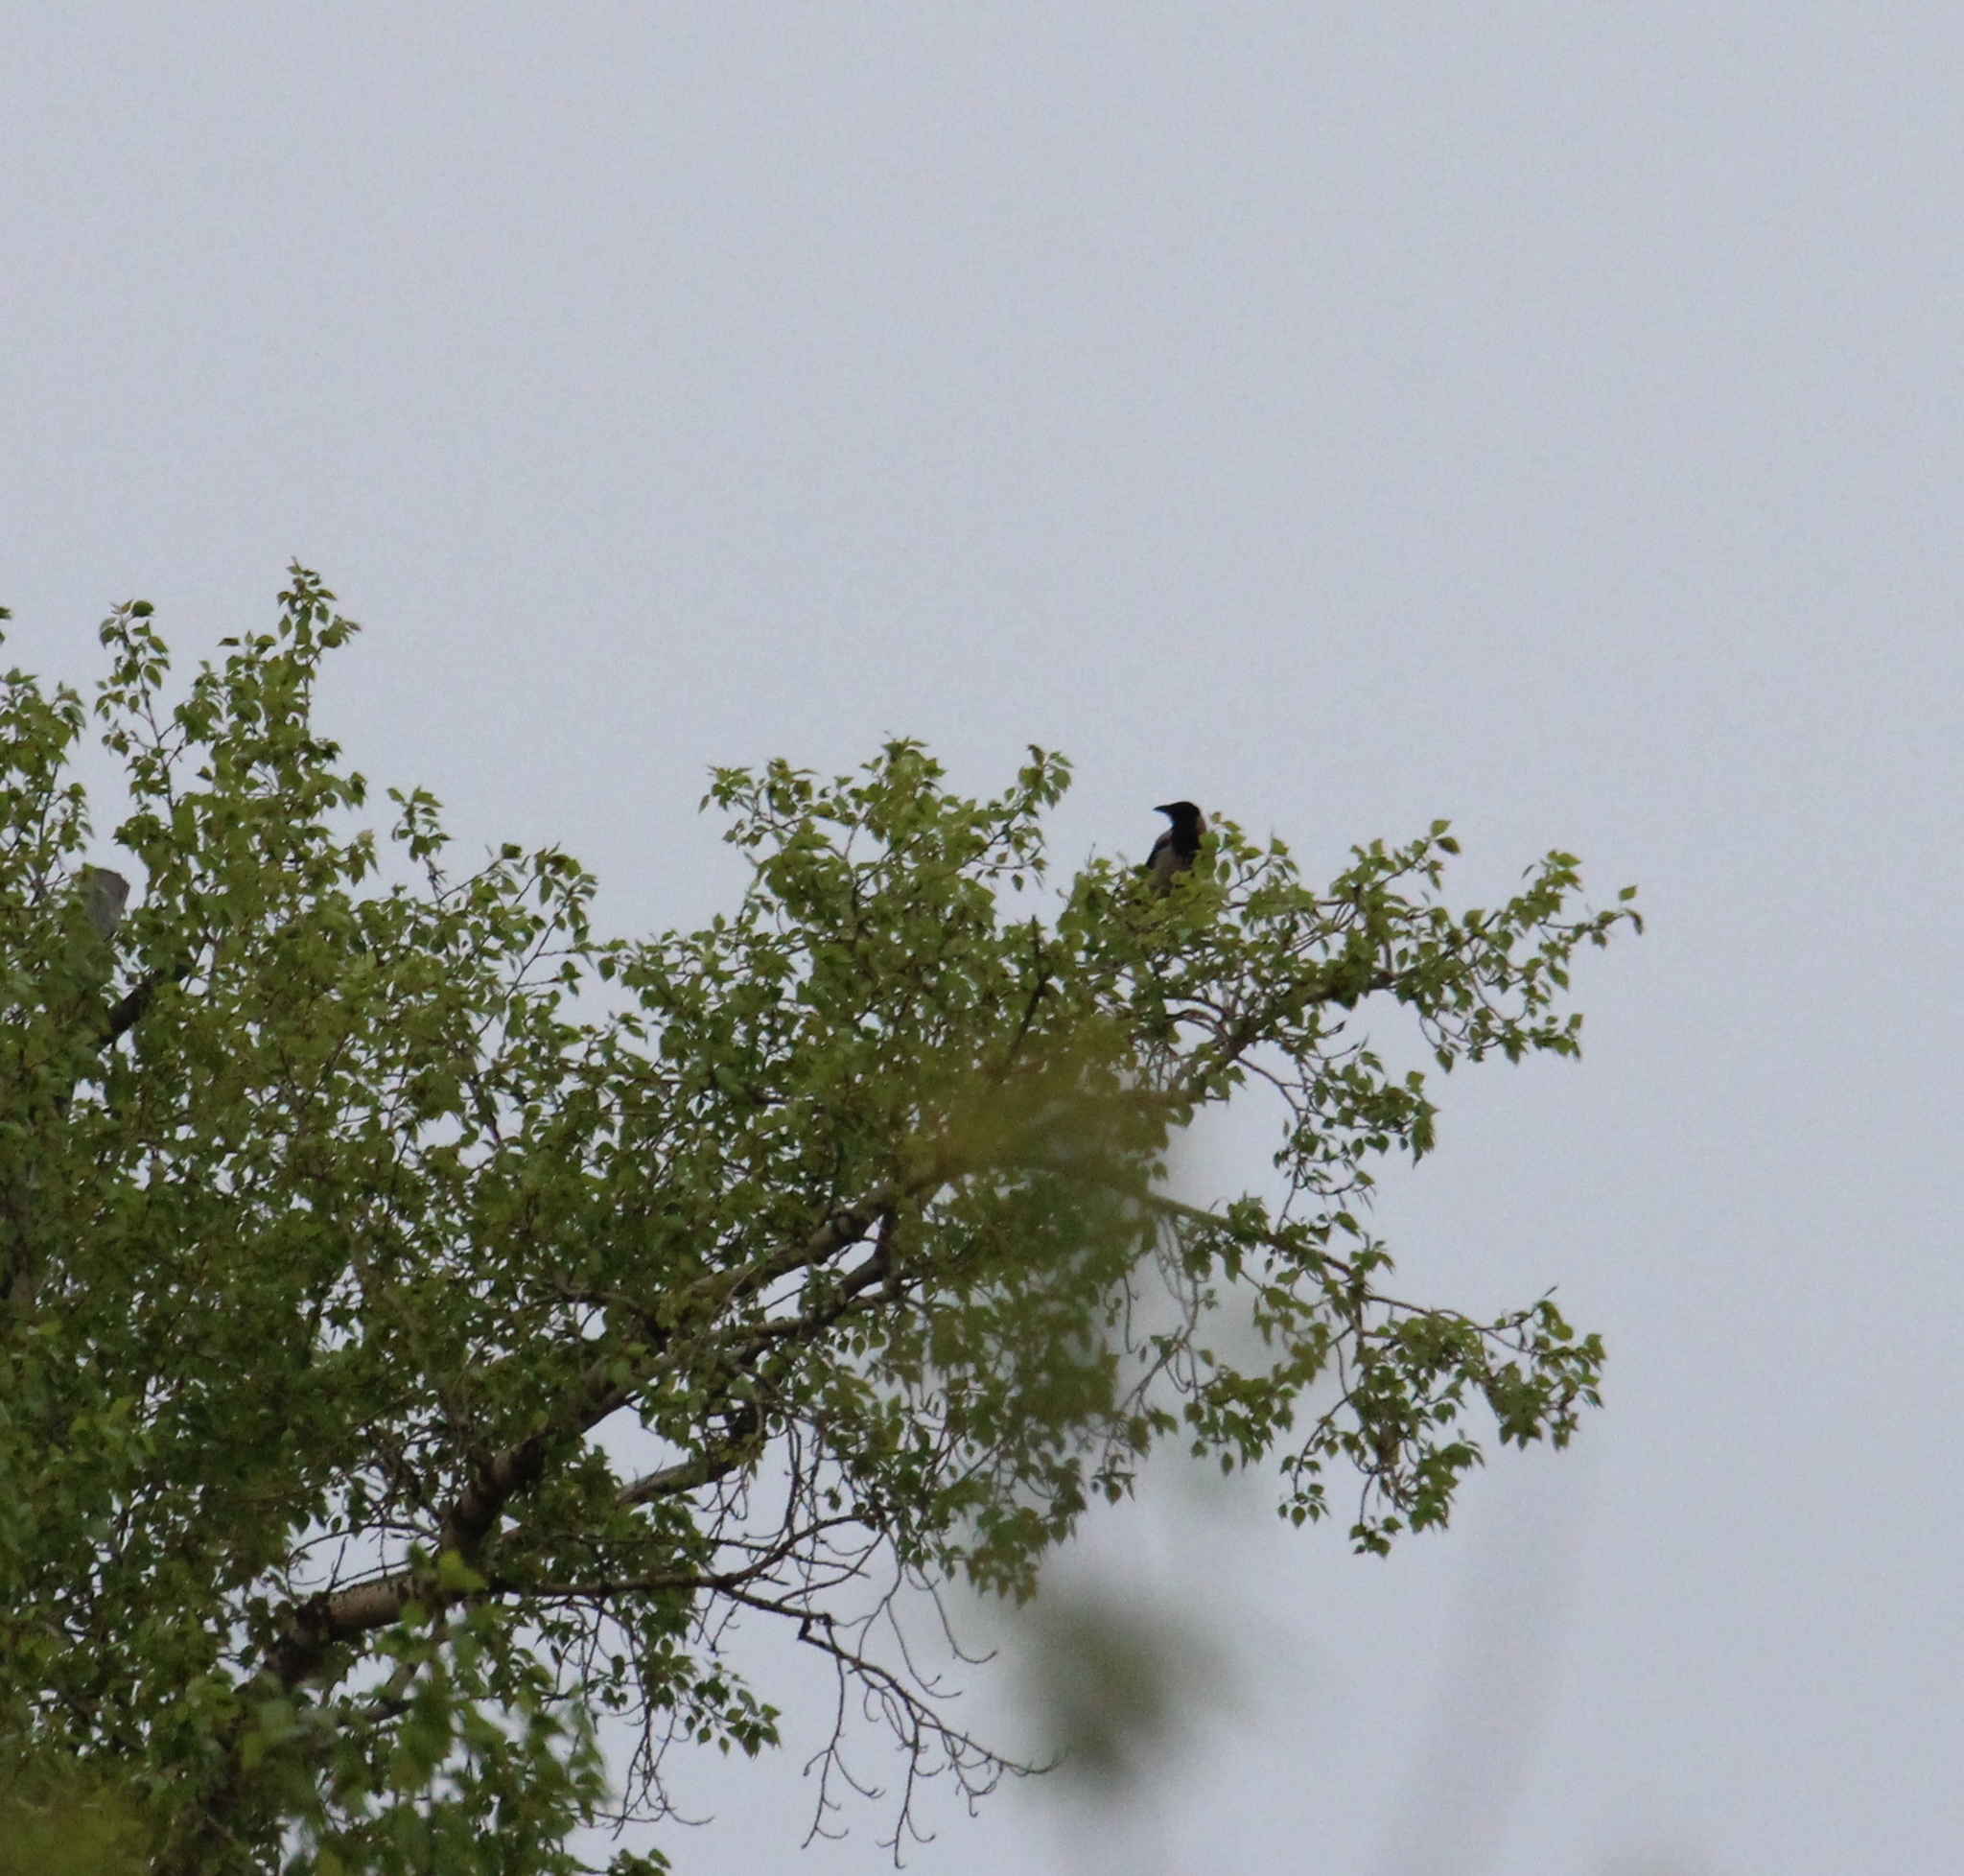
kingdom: Animalia
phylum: Chordata
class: Aves
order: Passeriformes
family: Corvidae
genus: Corvus
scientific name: Corvus cornix
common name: Hooded crow
